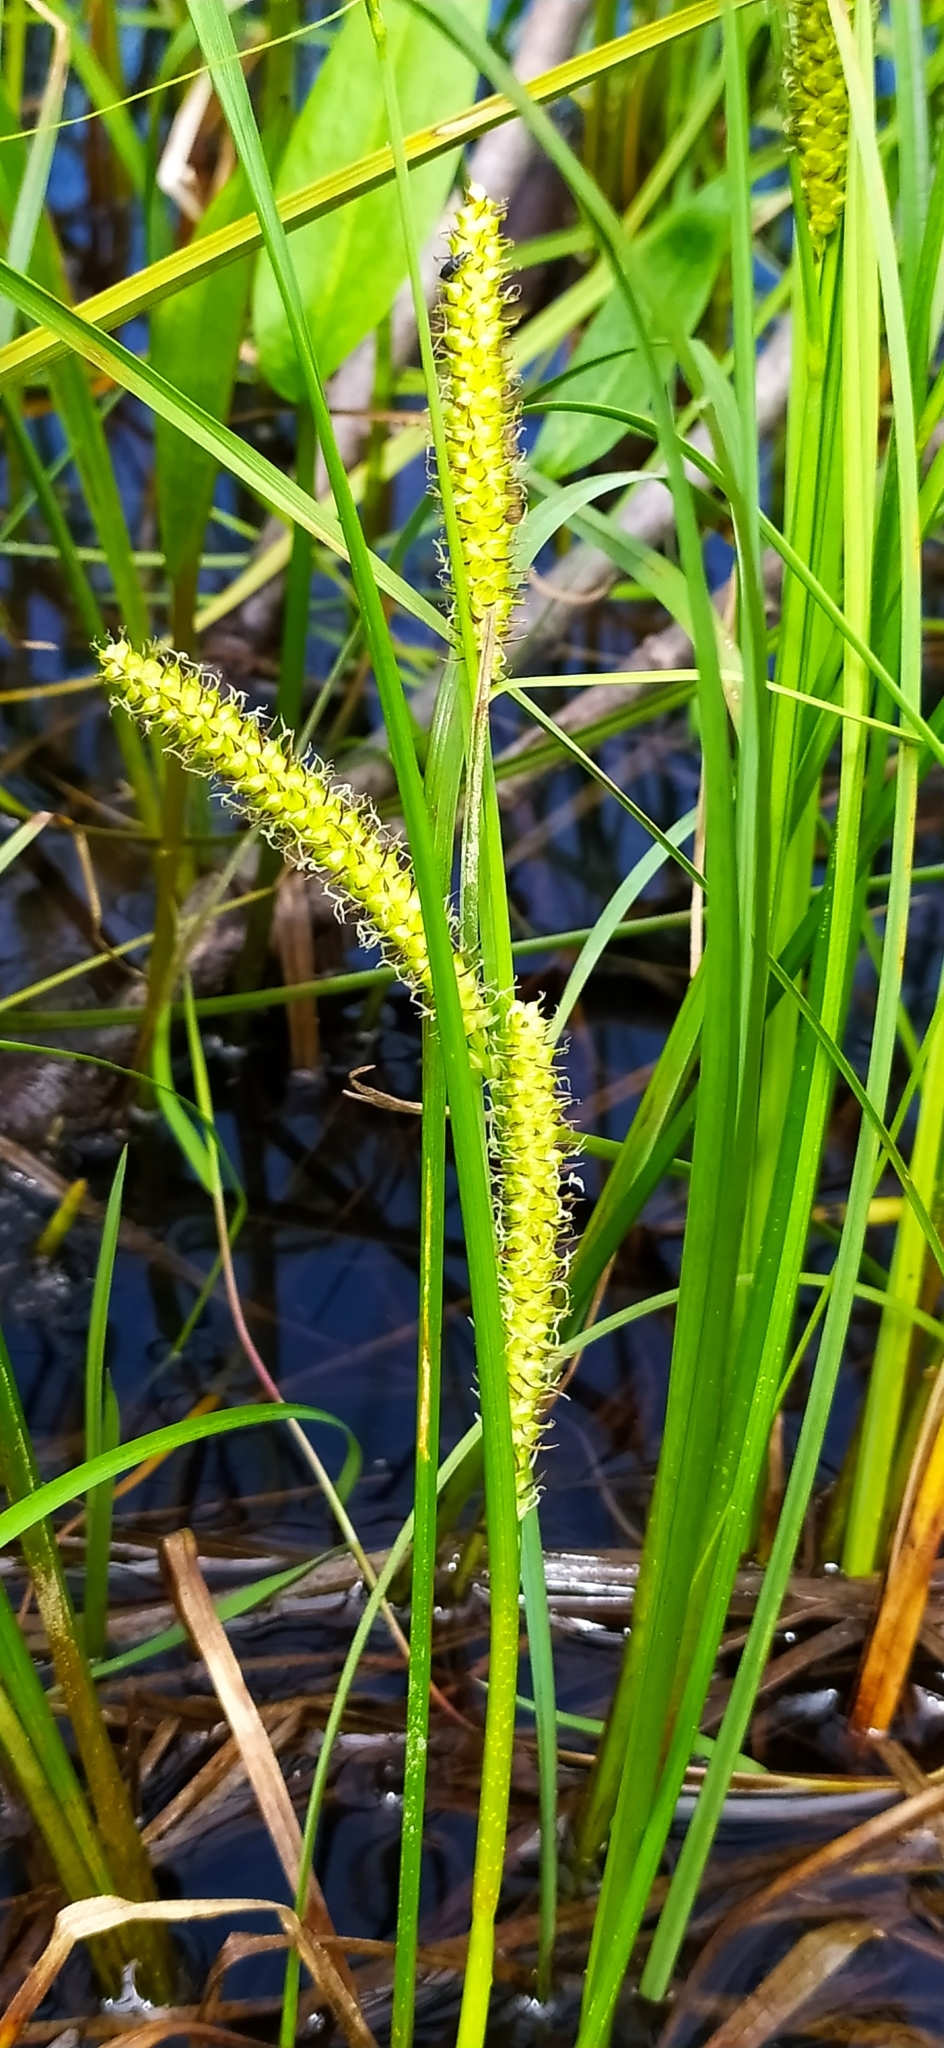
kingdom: Plantae
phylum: Tracheophyta
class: Liliopsida
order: Poales
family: Cyperaceae
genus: Carex
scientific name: Carex rostrata
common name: Bottle sedge
